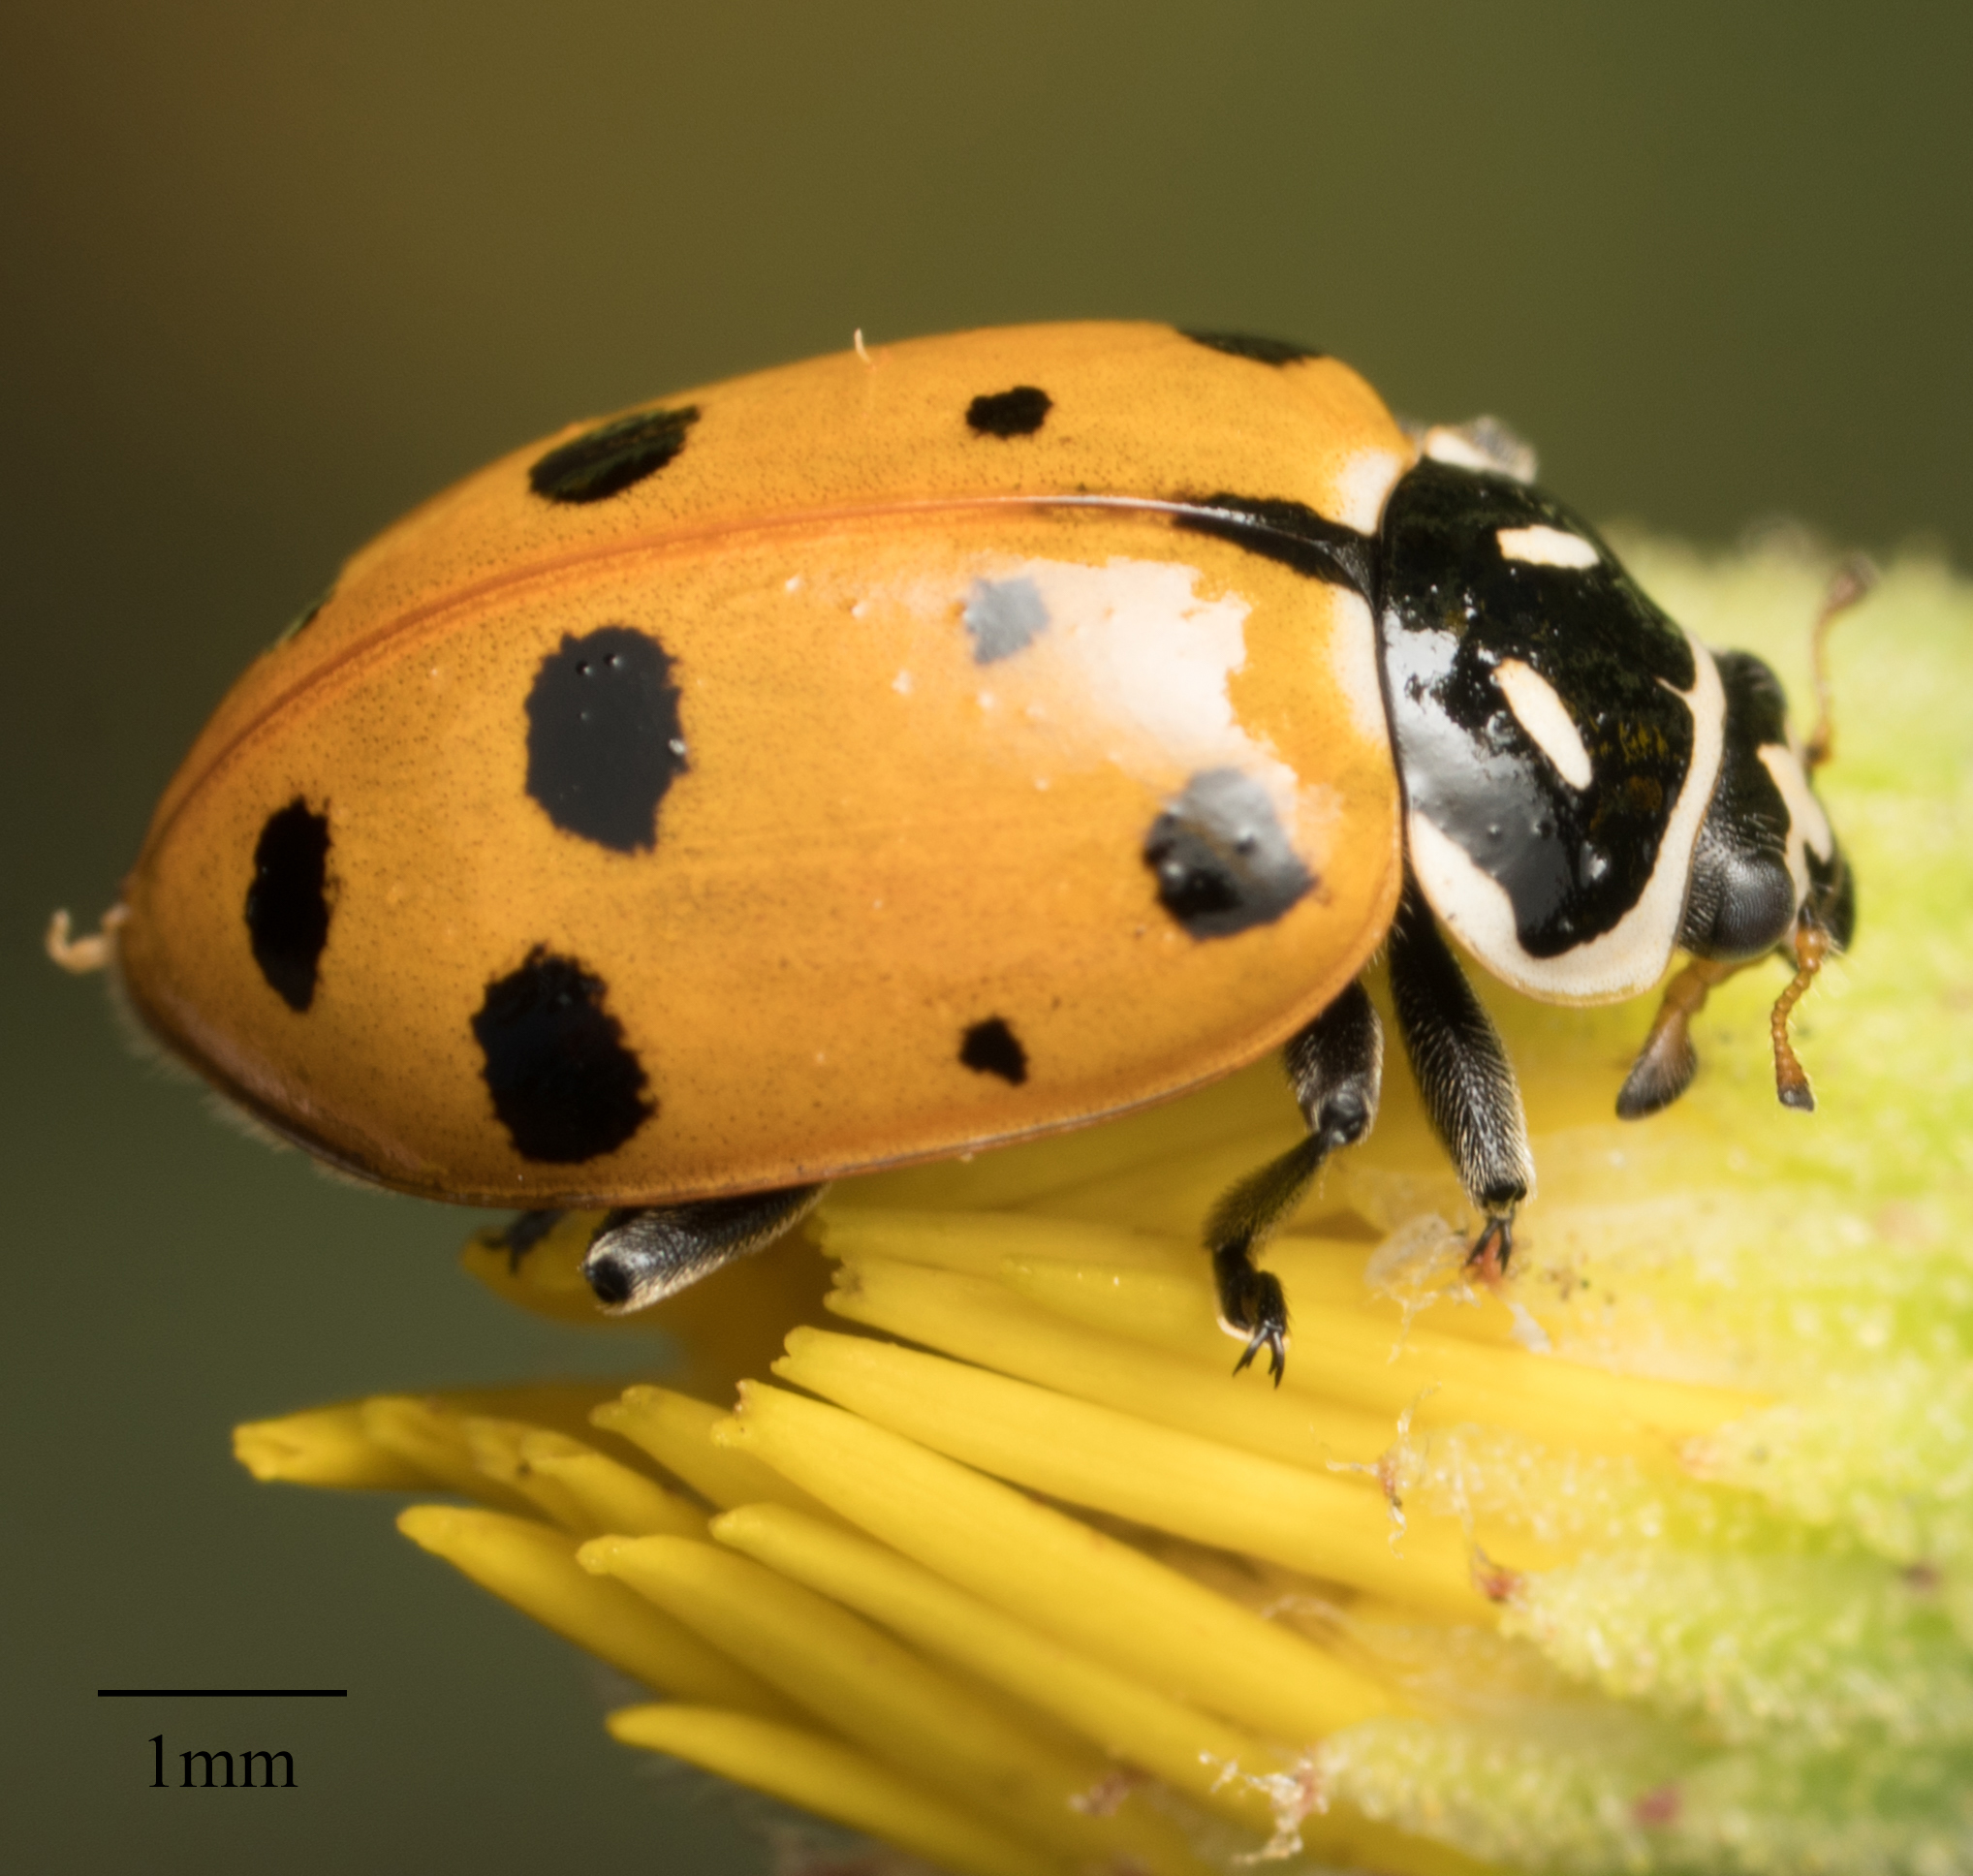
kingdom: Animalia
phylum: Arthropoda
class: Insecta
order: Coleoptera
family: Coccinellidae
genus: Hippodamia
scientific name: Hippodamia convergens
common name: Convergent lady beetle
